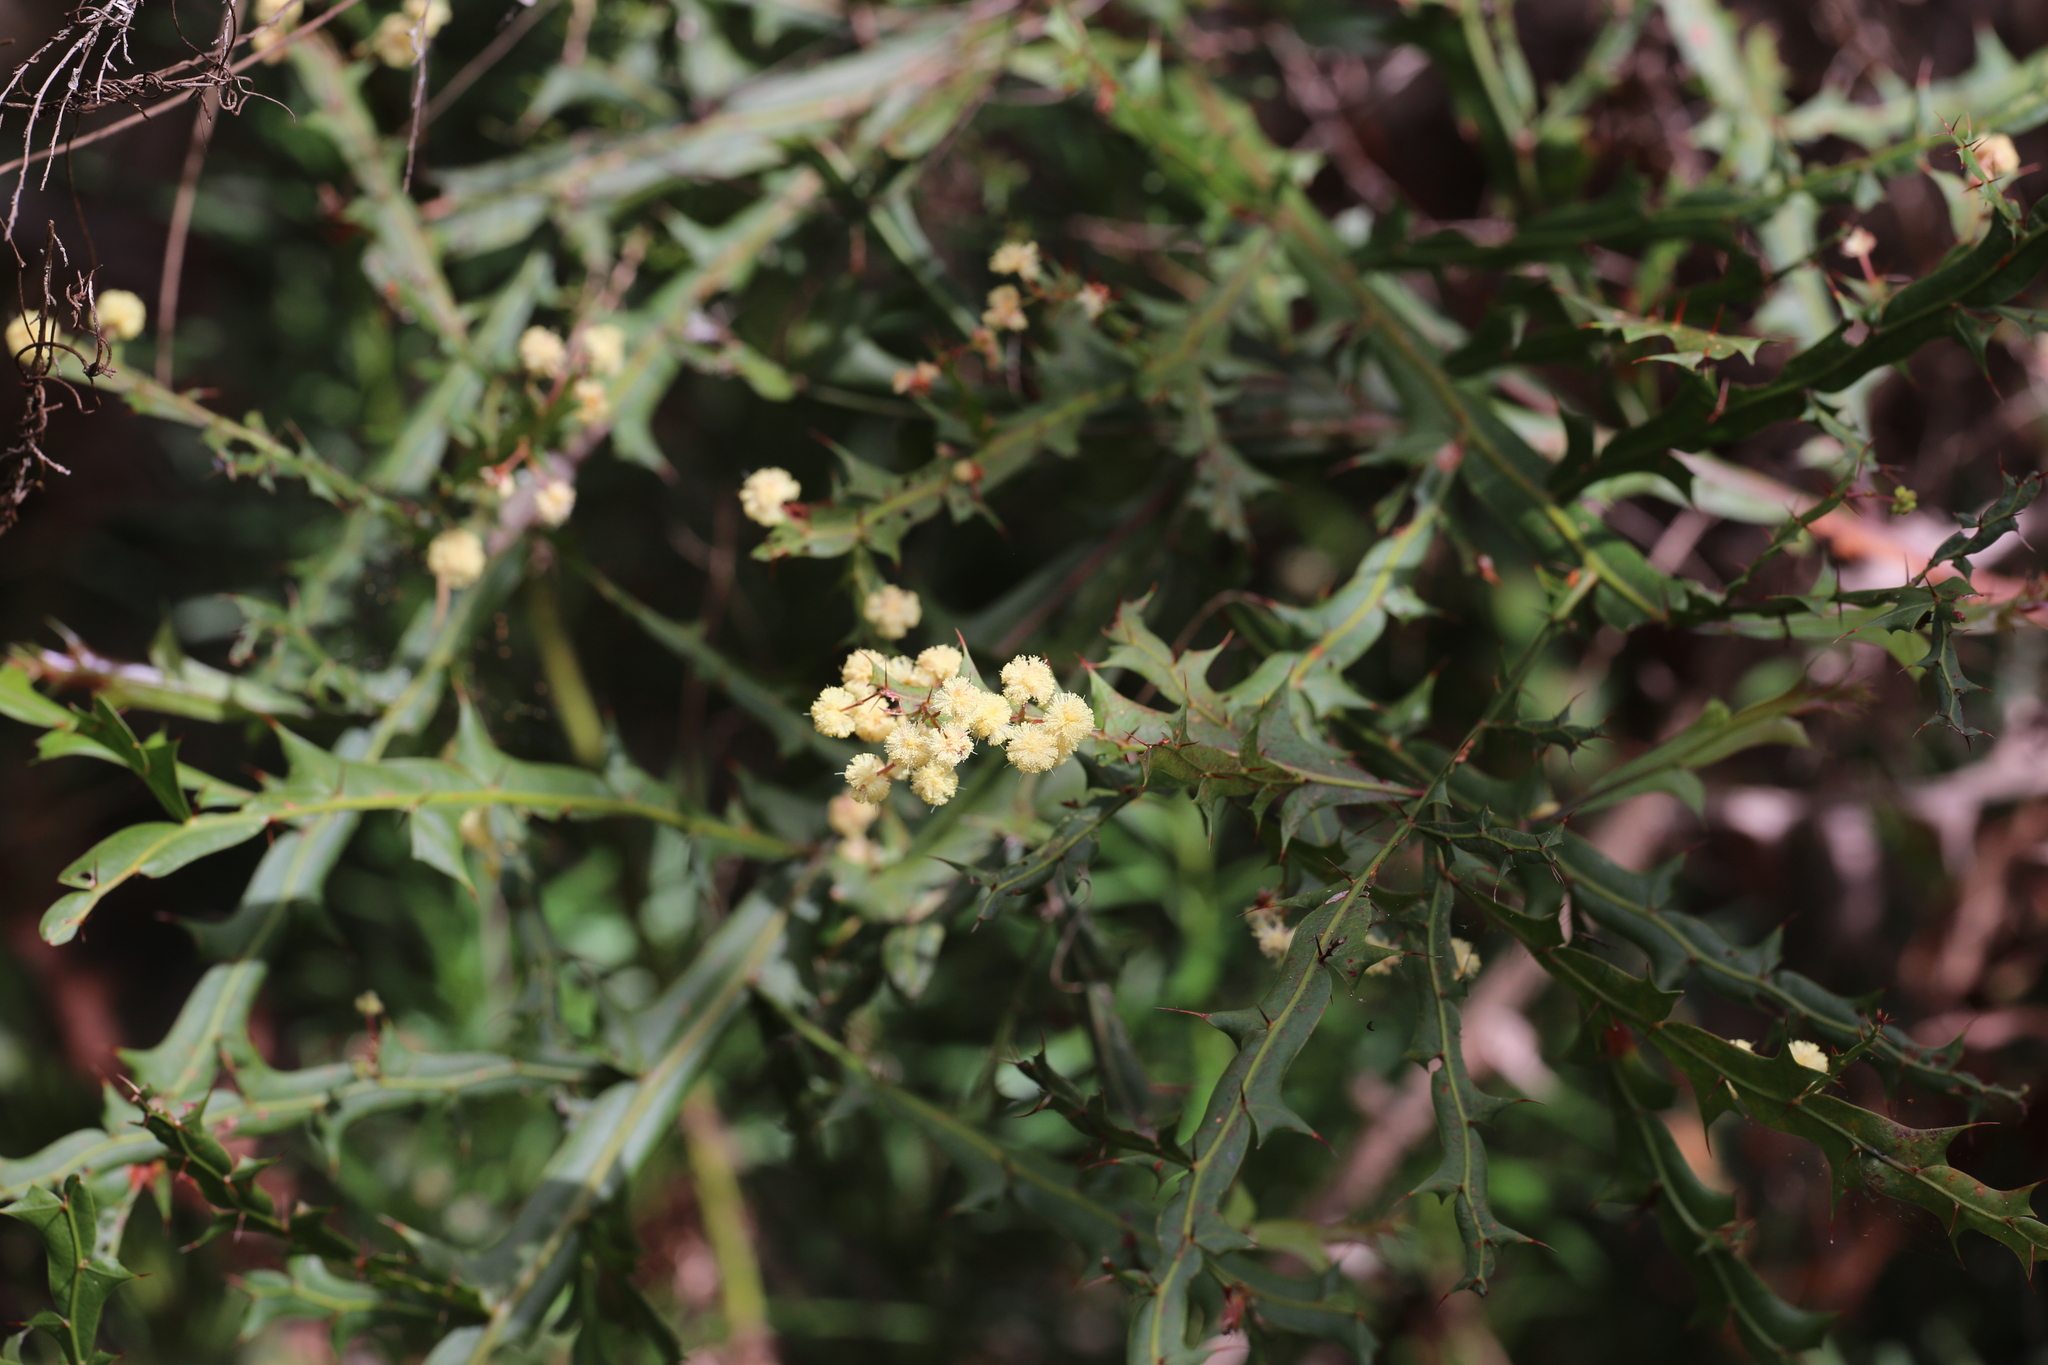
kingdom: Plantae
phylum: Tracheophyta
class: Magnoliopsida
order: Fabales
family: Fabaceae
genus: Acacia
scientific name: Acacia alata
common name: Winged wattle
